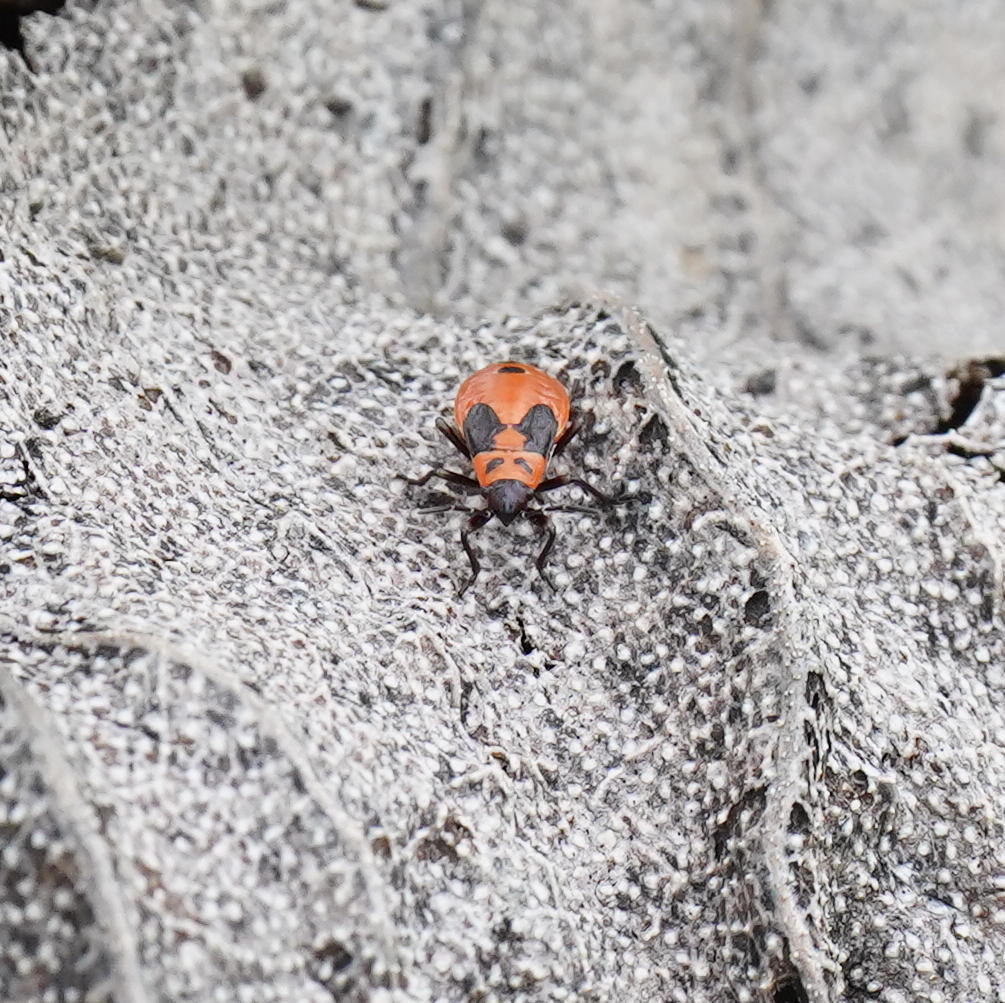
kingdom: Animalia
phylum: Arthropoda
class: Insecta
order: Hemiptera
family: Lygaeidae
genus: Lygaeus
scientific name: Lygaeus turcicus
